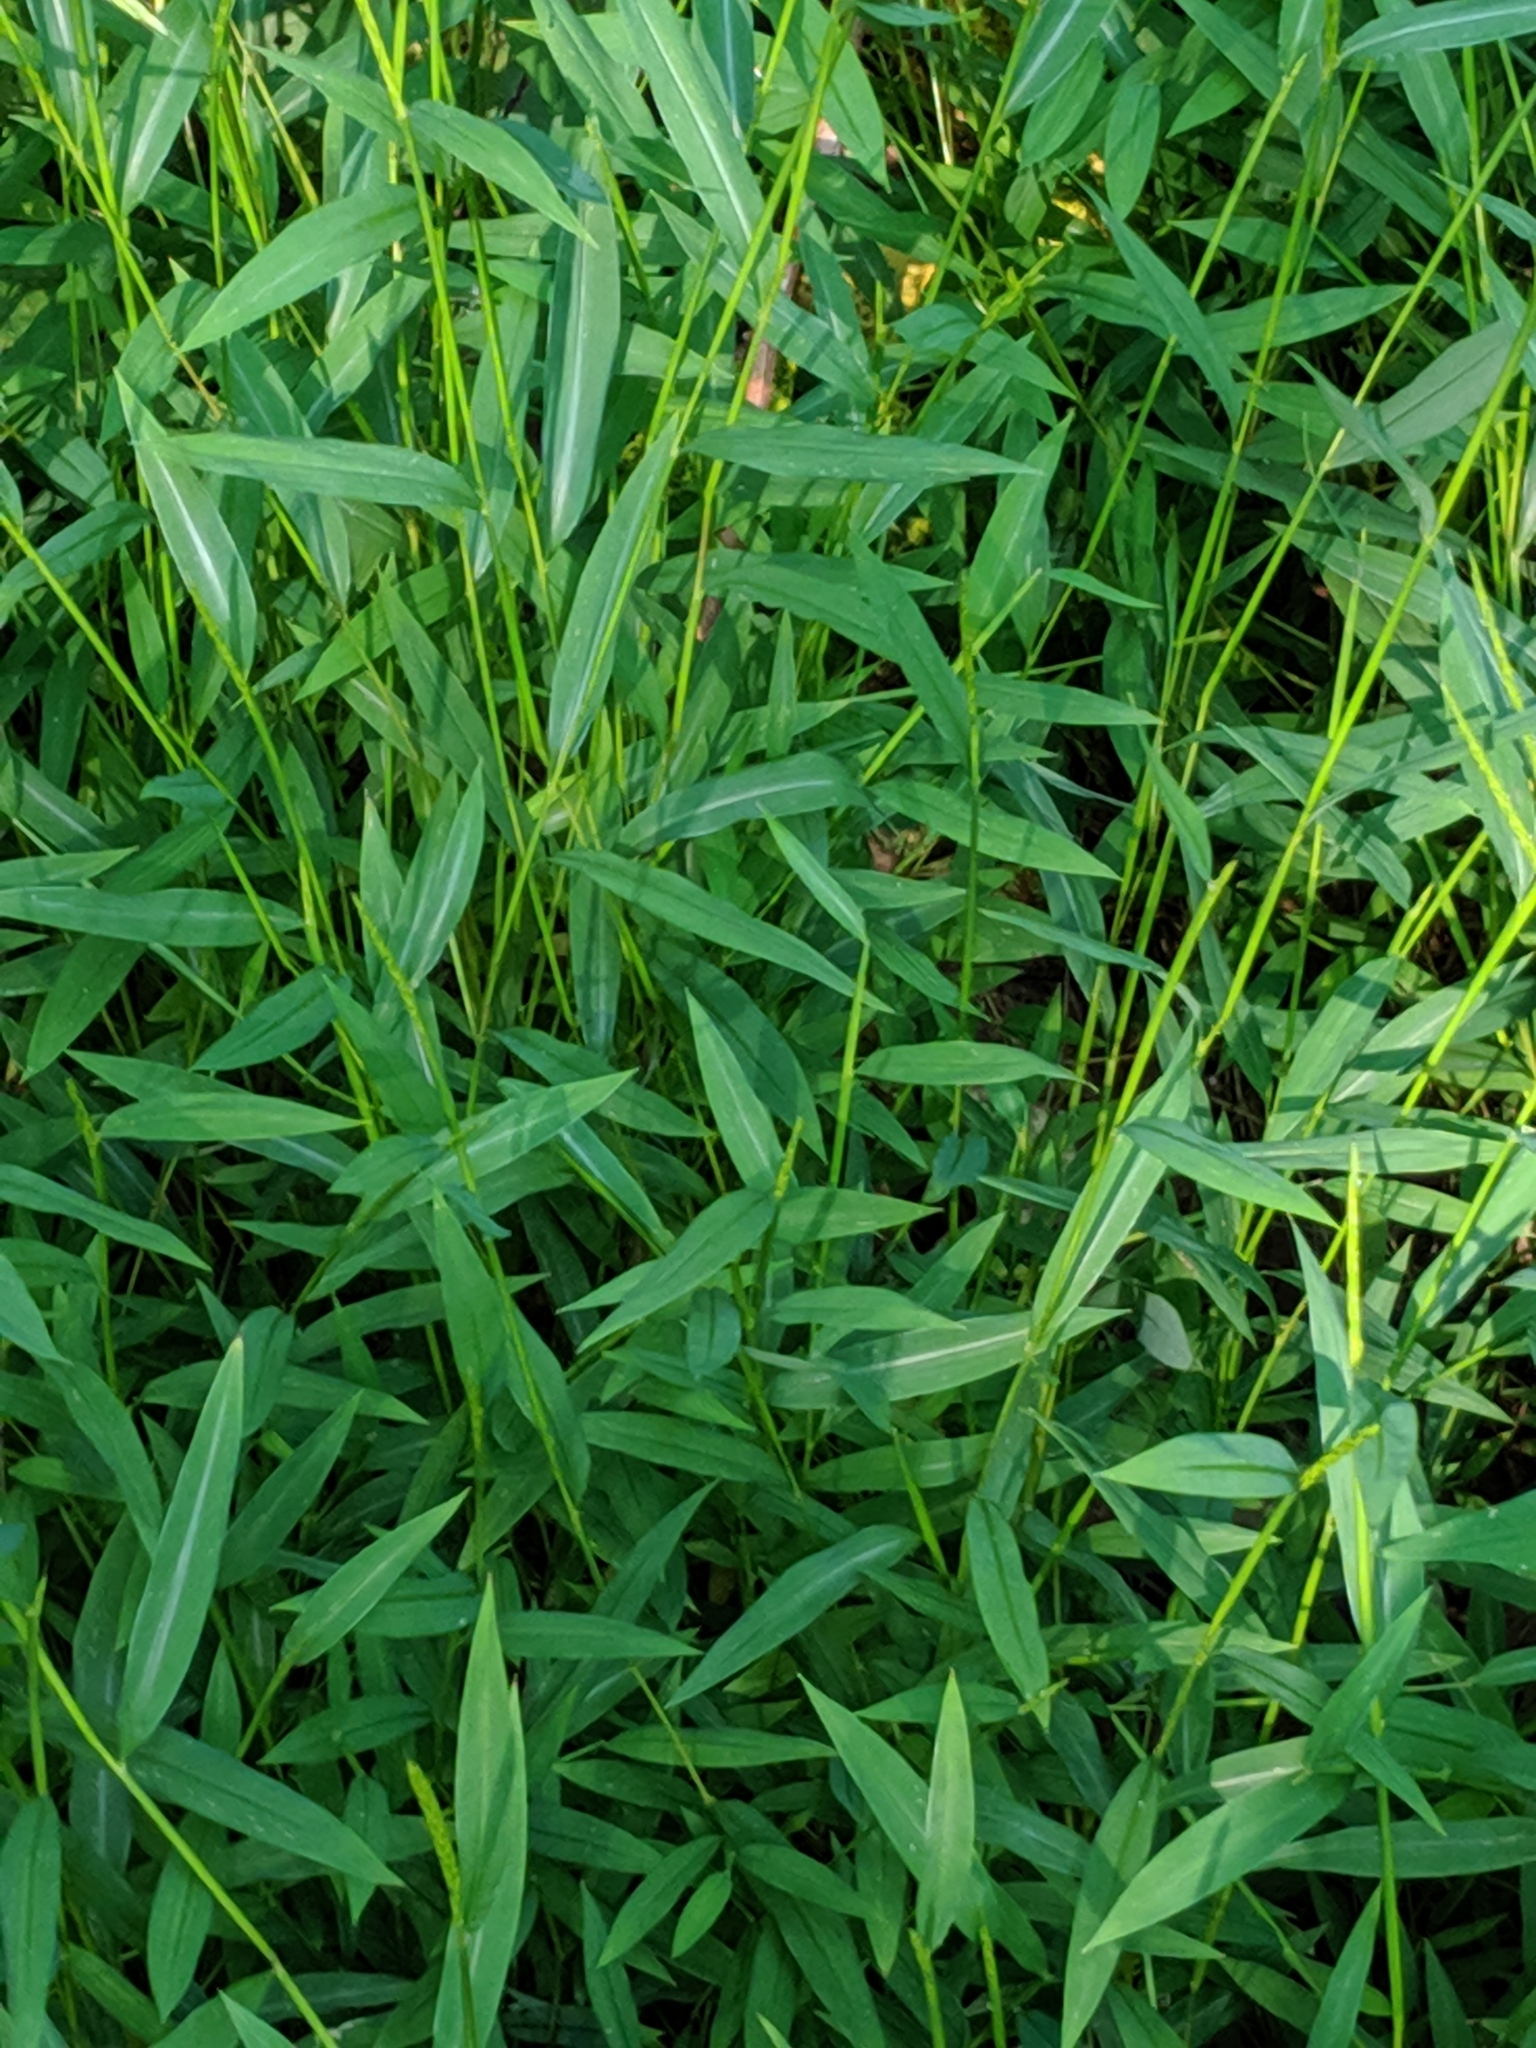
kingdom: Plantae
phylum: Tracheophyta
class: Liliopsida
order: Poales
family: Poaceae
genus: Microstegium
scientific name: Microstegium vimineum
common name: Japanese stiltgrass
